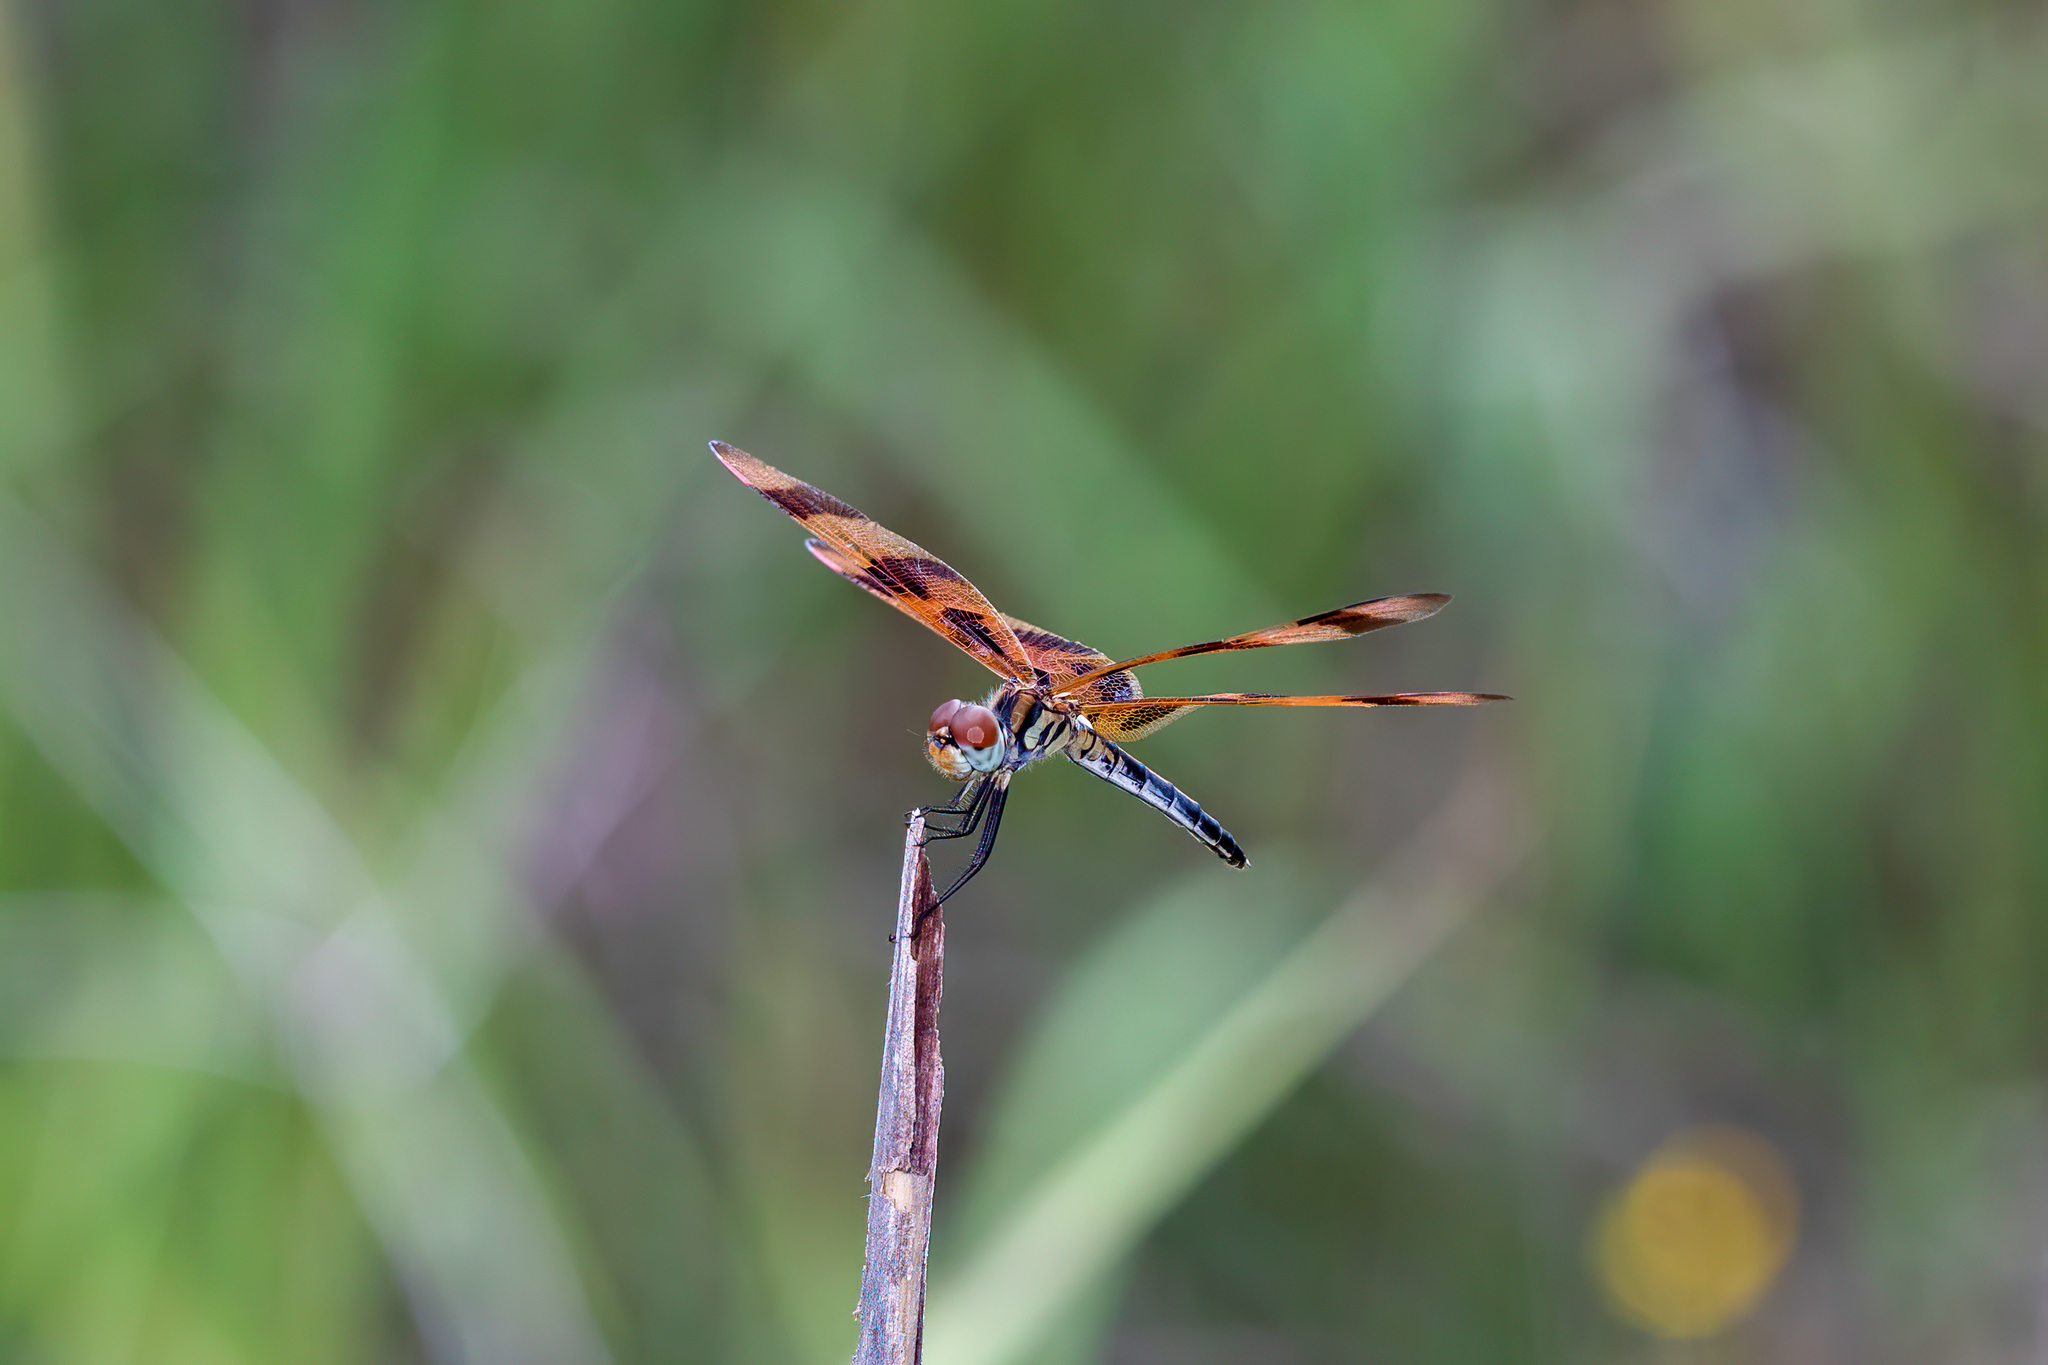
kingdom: Animalia
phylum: Arthropoda
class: Insecta
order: Odonata
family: Libellulidae
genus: Celithemis
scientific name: Celithemis eponina
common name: Halloween pennant
